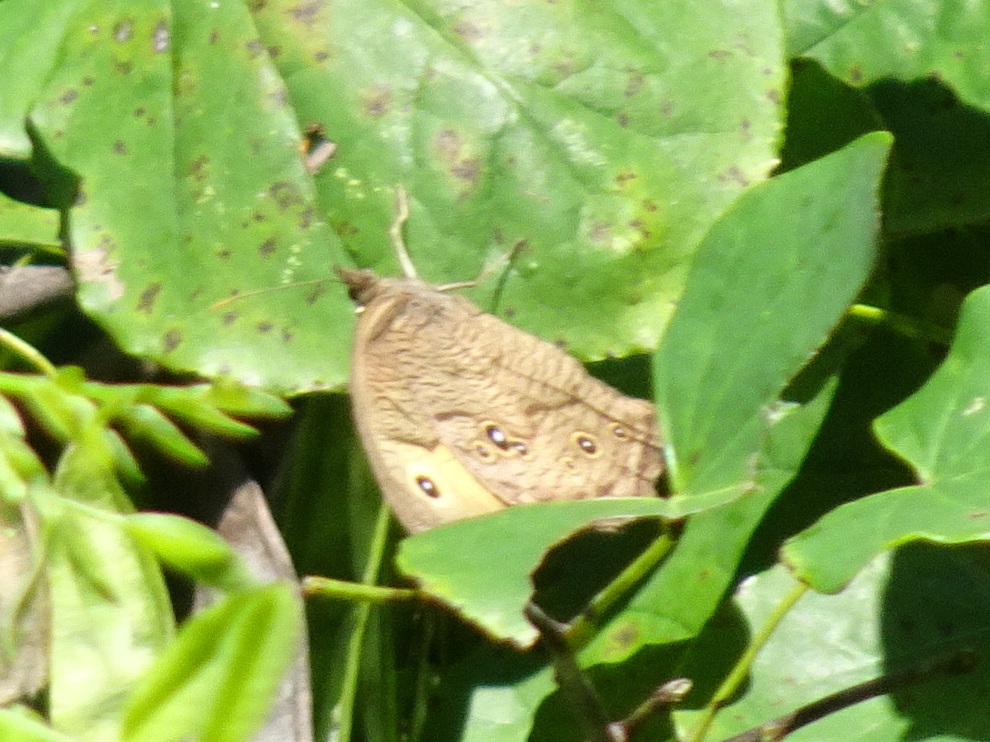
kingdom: Animalia
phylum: Arthropoda
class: Insecta
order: Lepidoptera
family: Nymphalidae
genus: Cercyonis
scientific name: Cercyonis pegala
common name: Common wood-nymph
